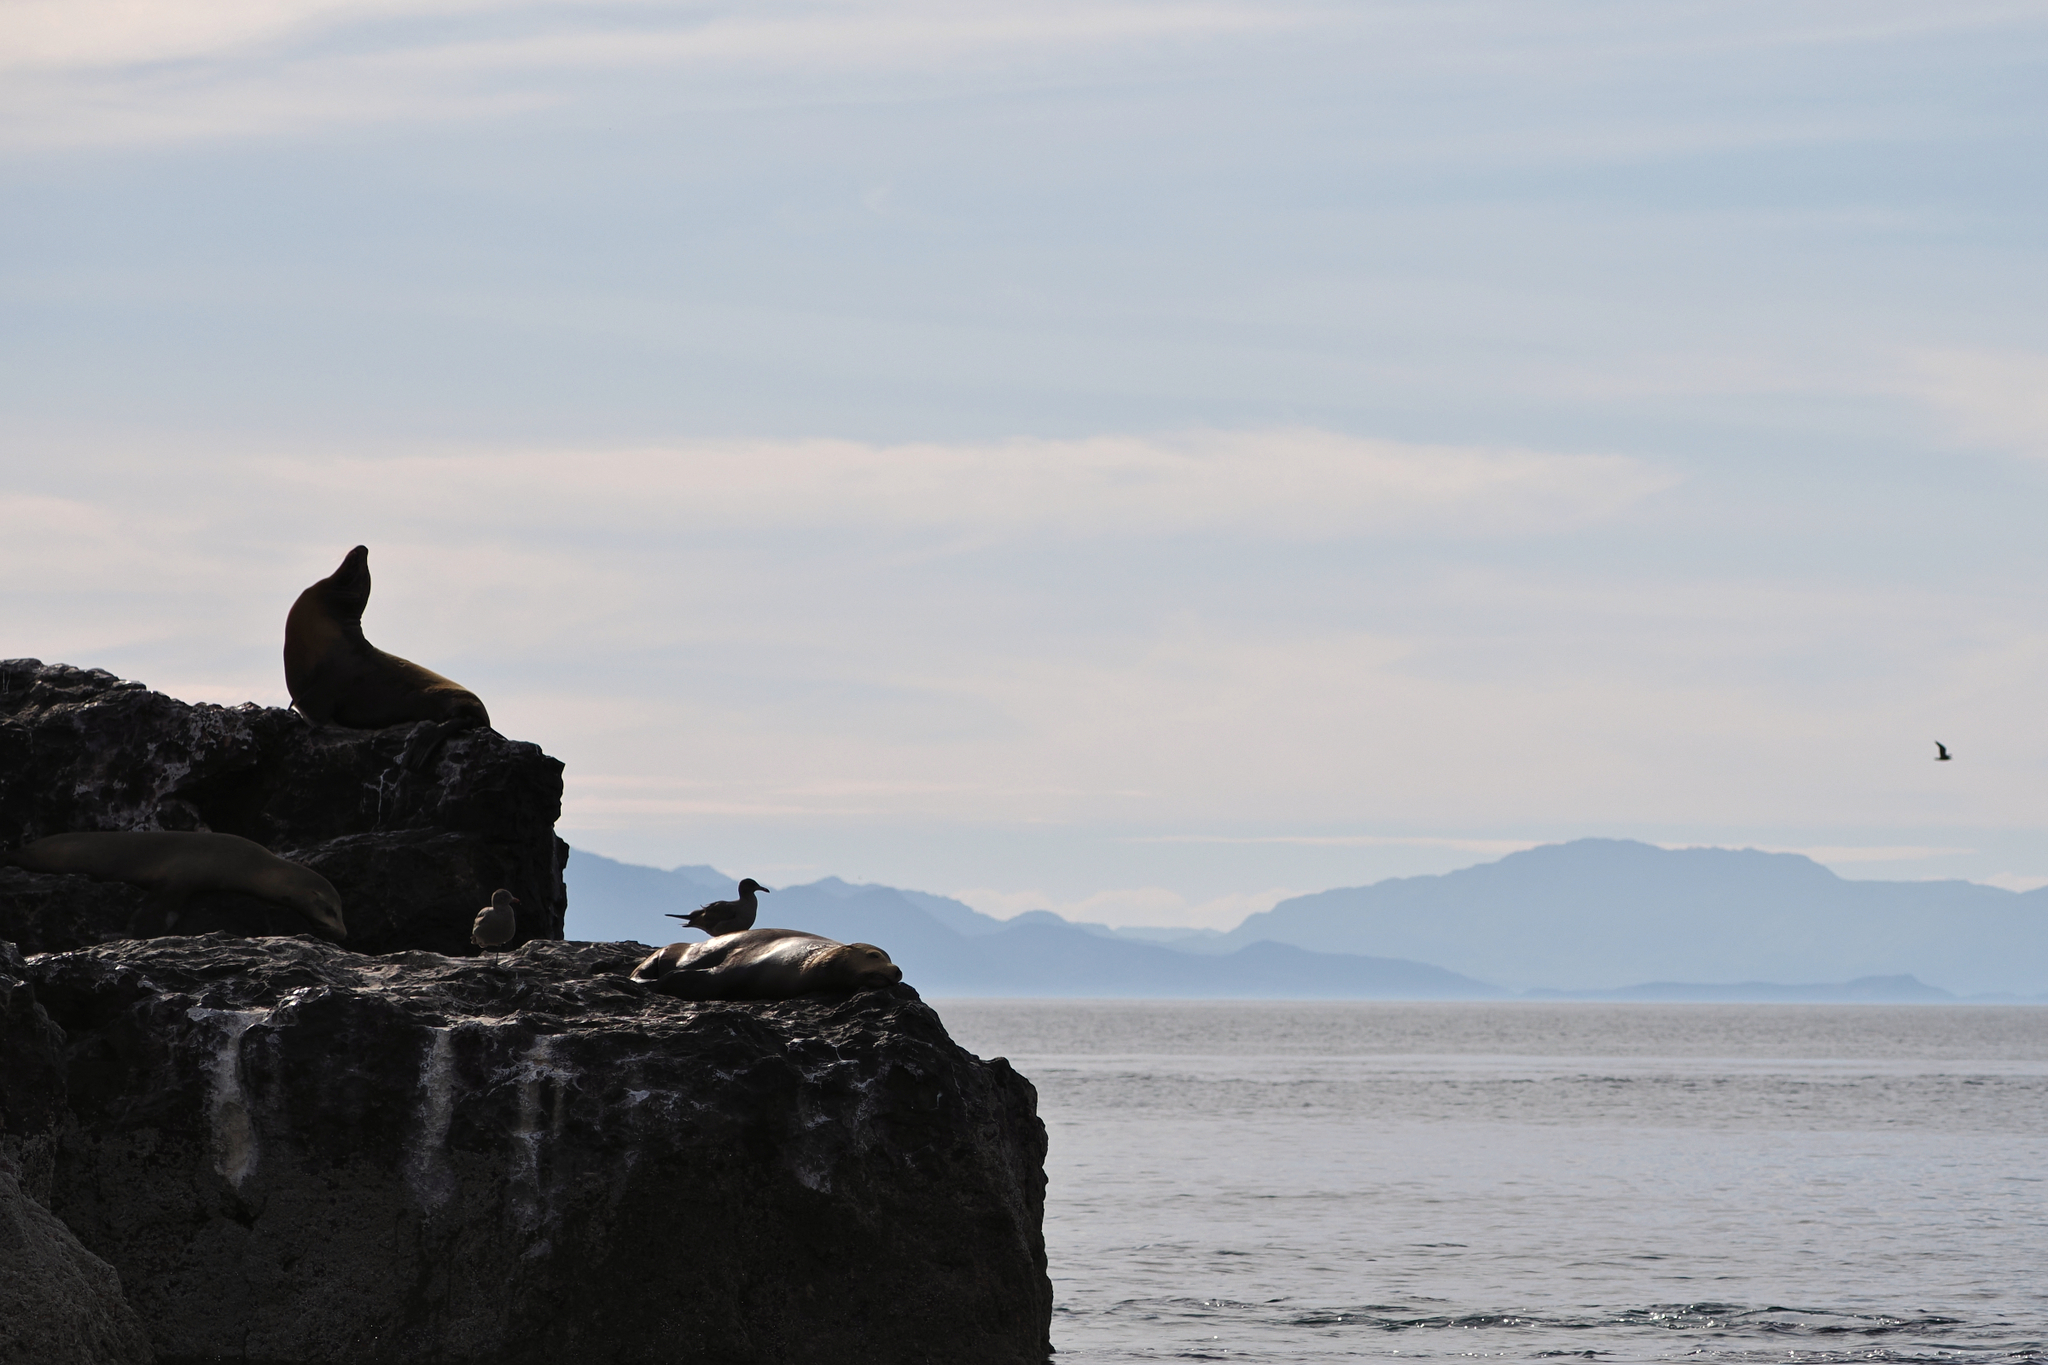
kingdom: Animalia
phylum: Chordata
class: Mammalia
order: Carnivora
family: Otariidae
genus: Zalophus
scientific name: Zalophus californianus
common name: California sea lion
